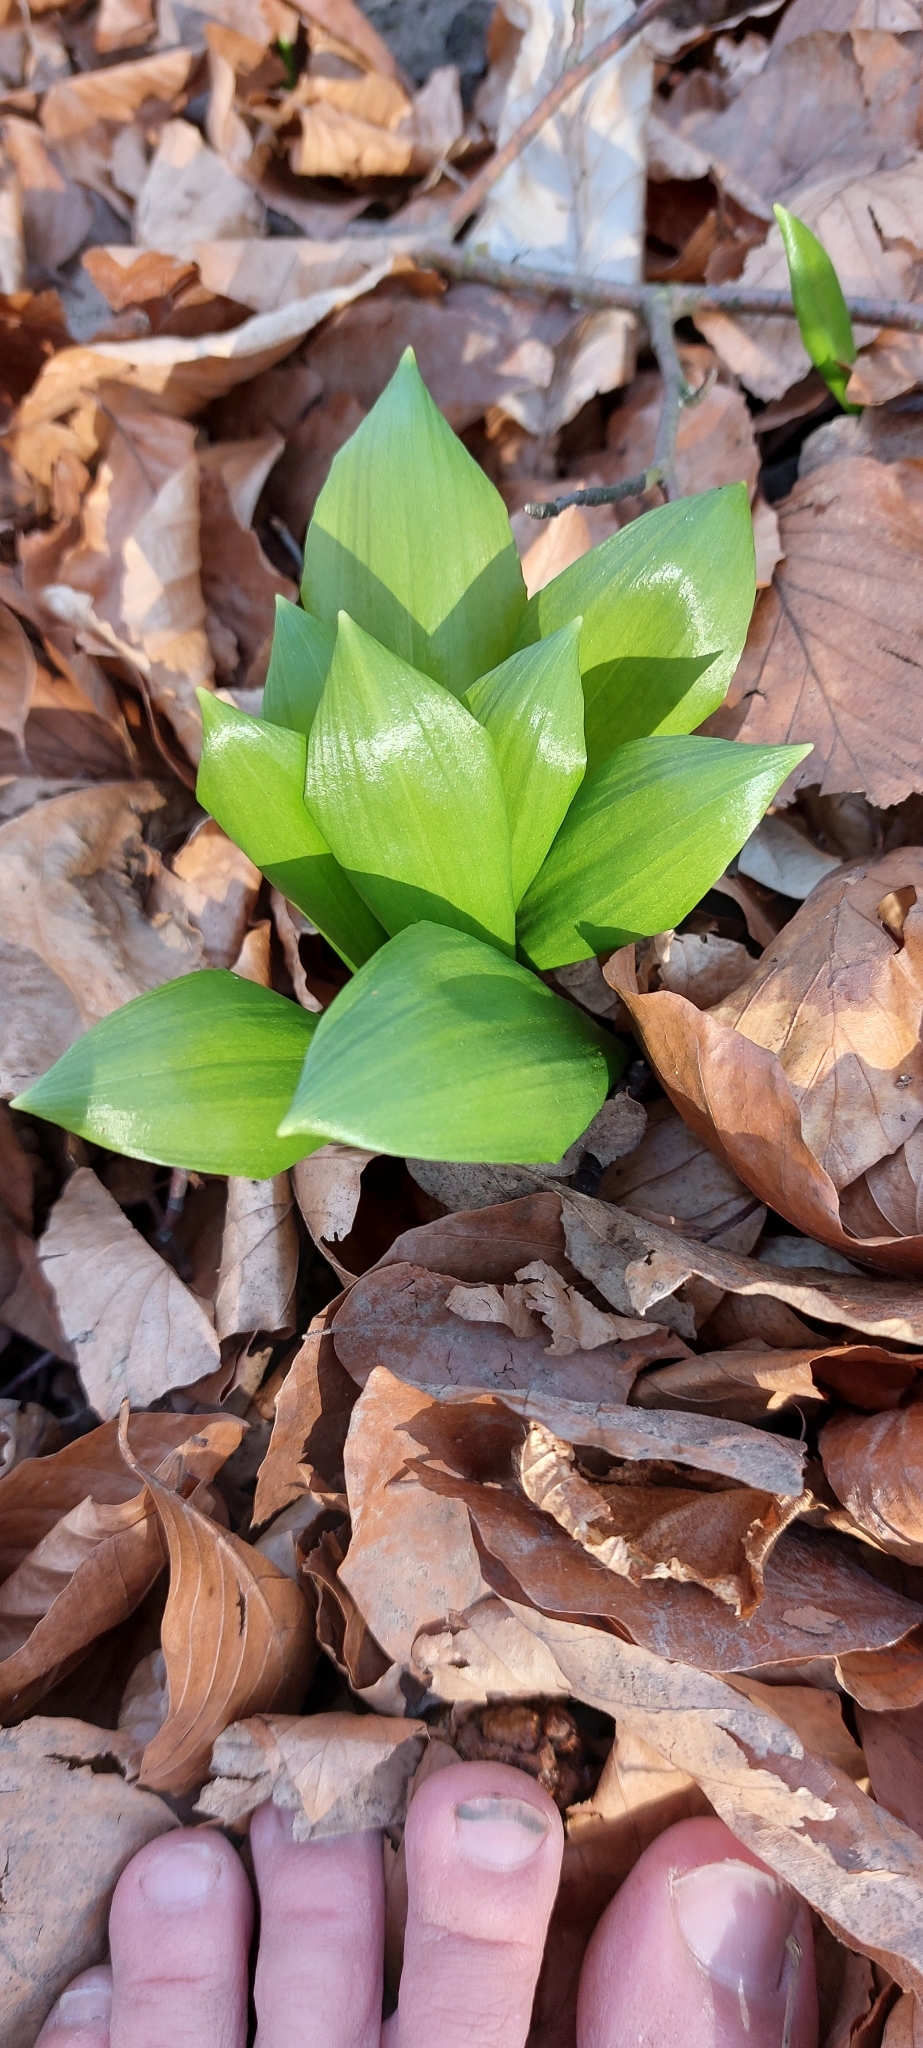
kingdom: Plantae
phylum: Tracheophyta
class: Liliopsida
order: Asparagales
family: Amaryllidaceae
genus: Allium
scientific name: Allium ursinum
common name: Ramsons
